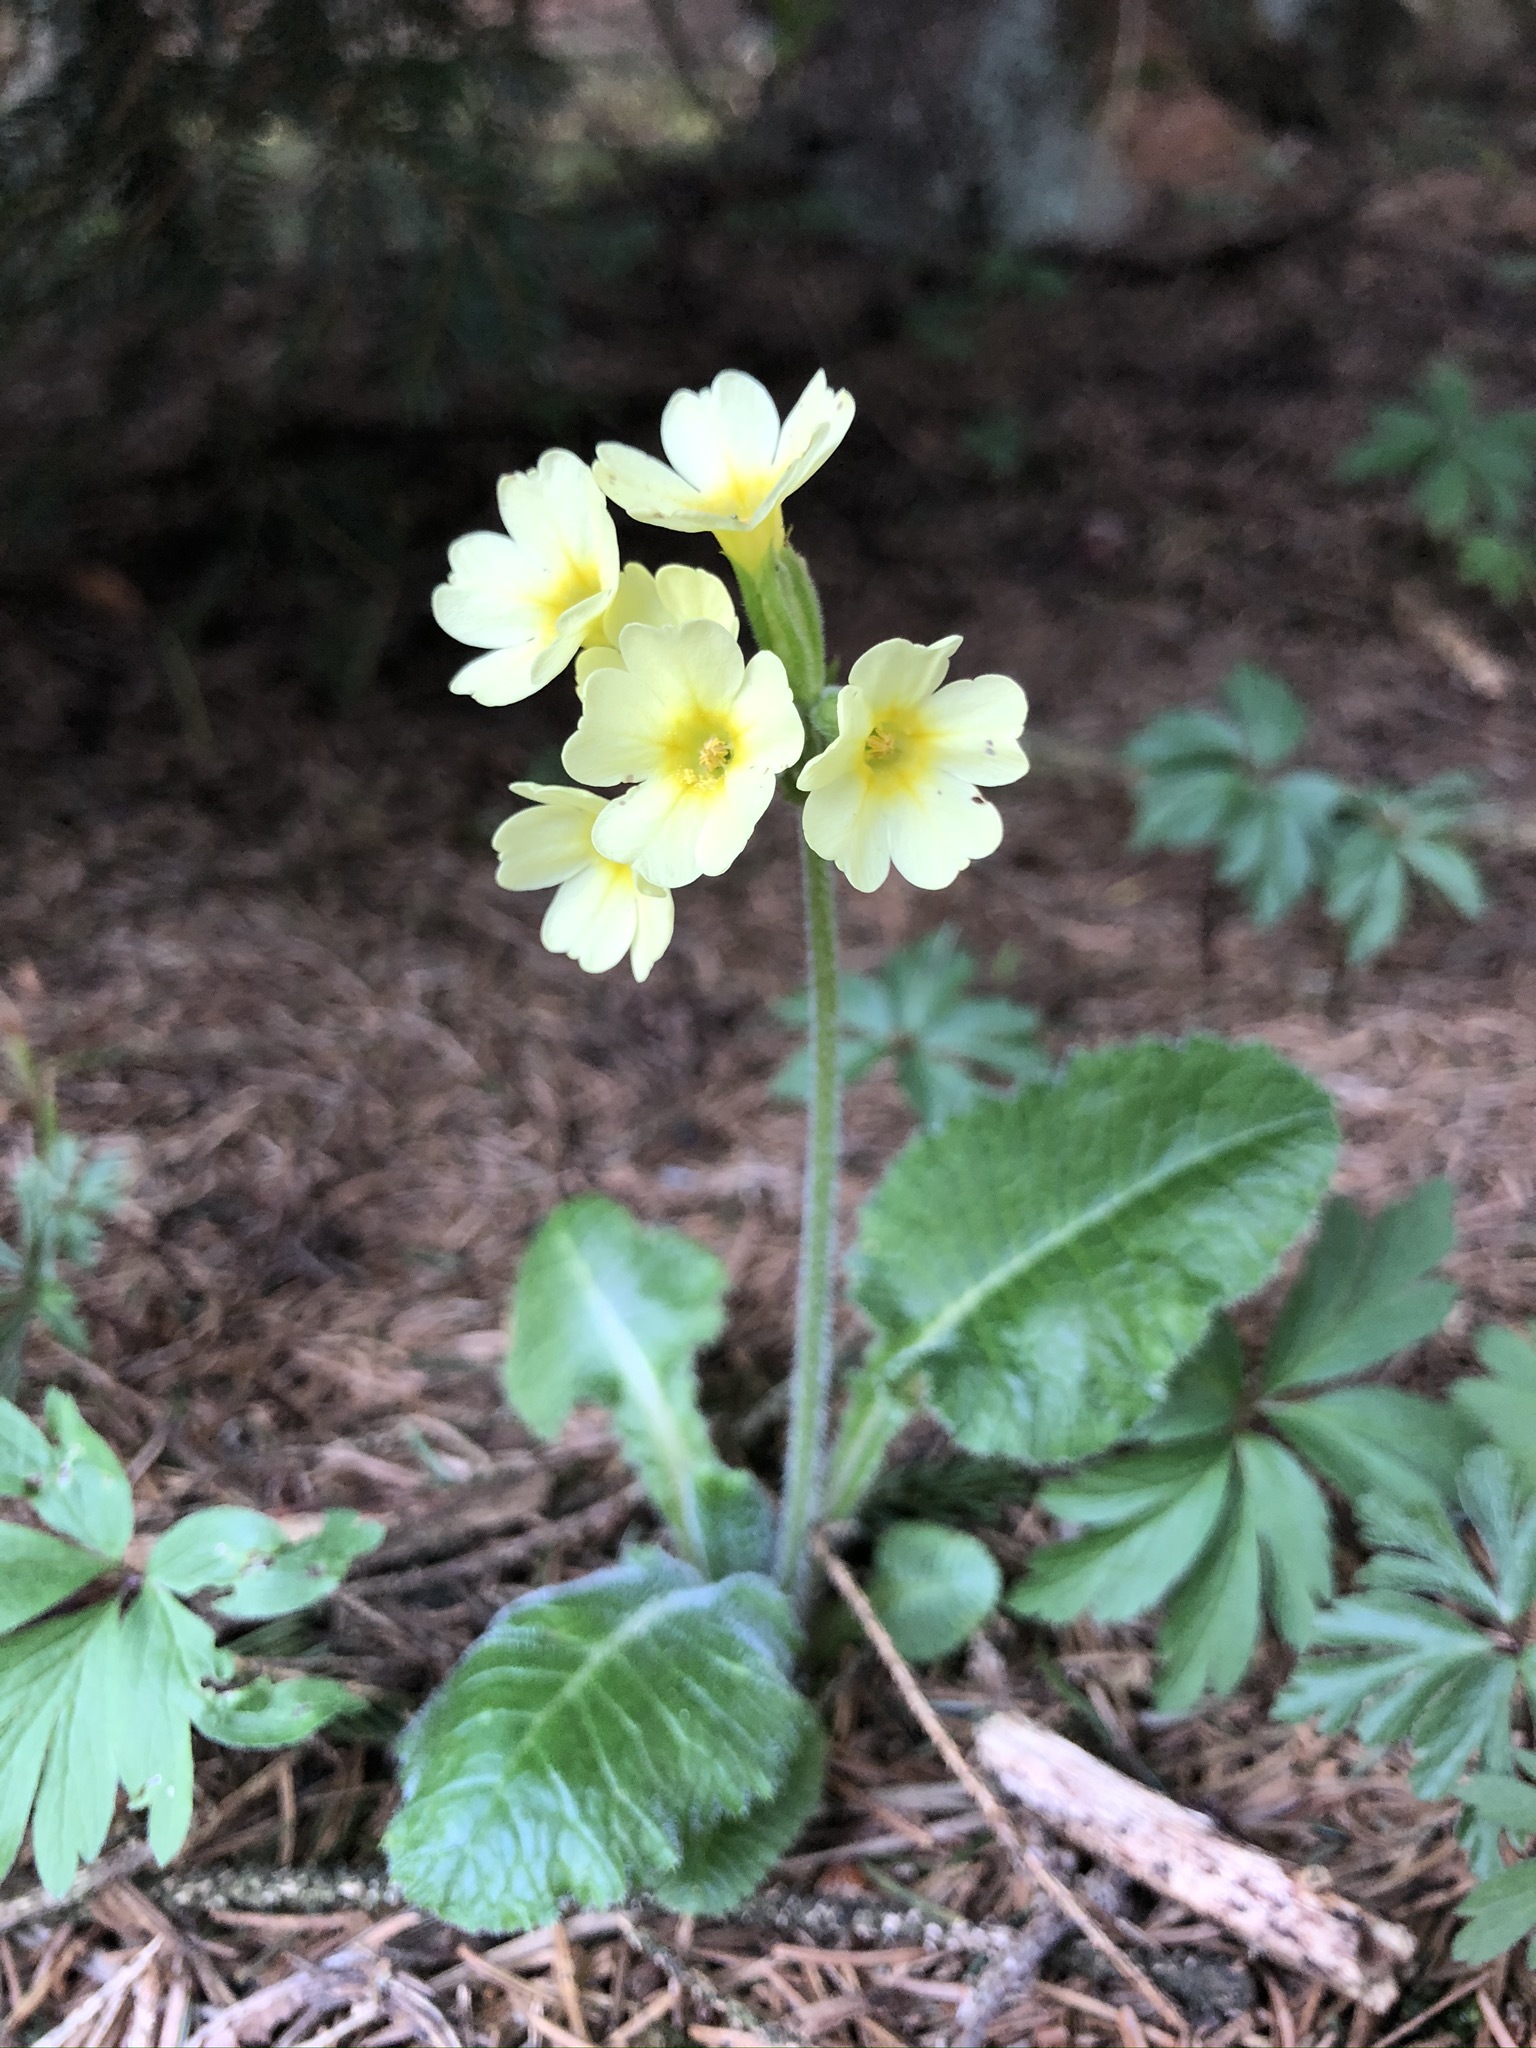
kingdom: Plantae
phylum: Tracheophyta
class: Magnoliopsida
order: Ericales
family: Primulaceae
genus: Primula
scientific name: Primula elatior
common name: Oxlip
